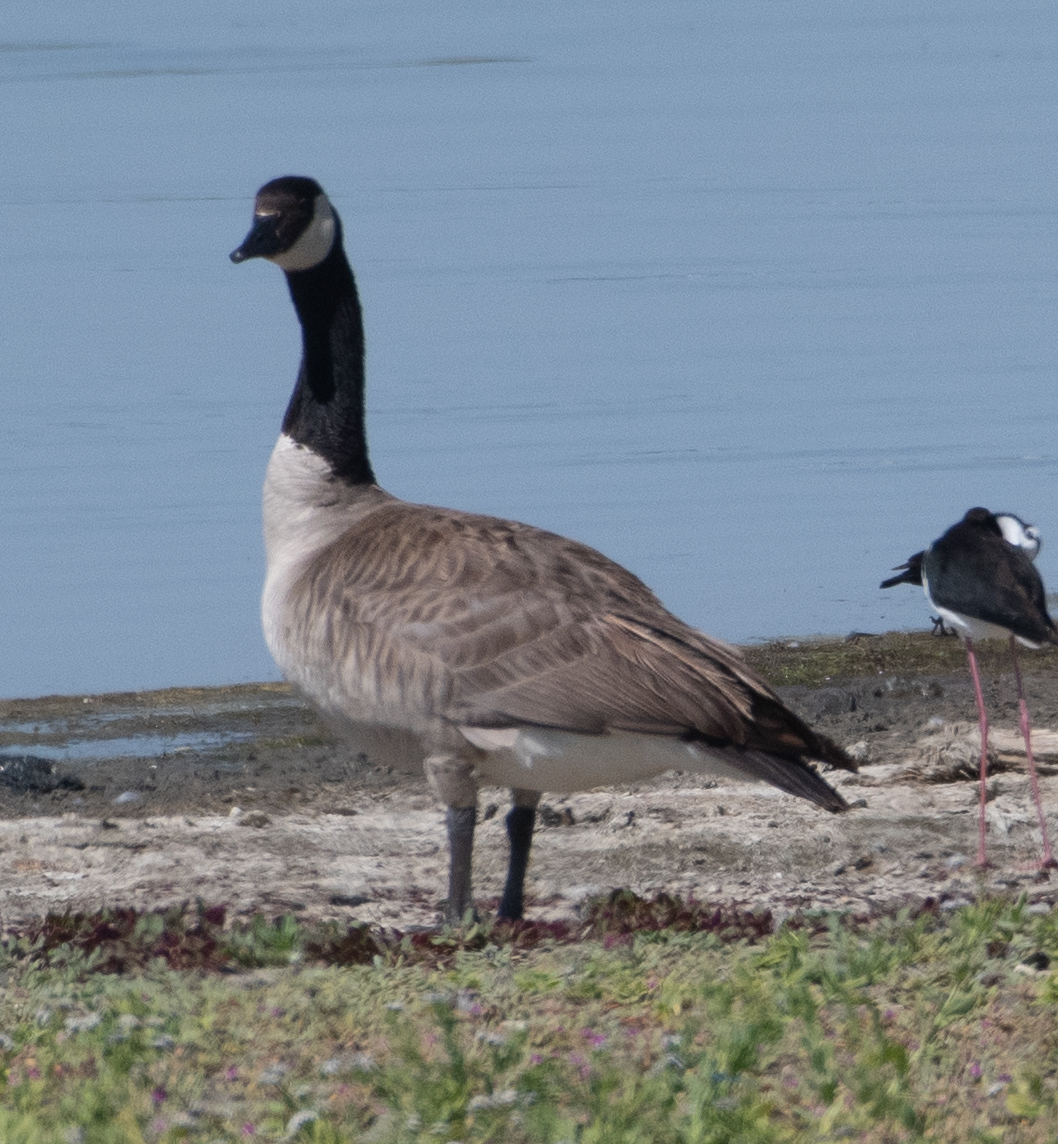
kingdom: Animalia
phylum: Chordata
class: Aves
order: Anseriformes
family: Anatidae
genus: Branta
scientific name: Branta canadensis
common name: Canada goose
